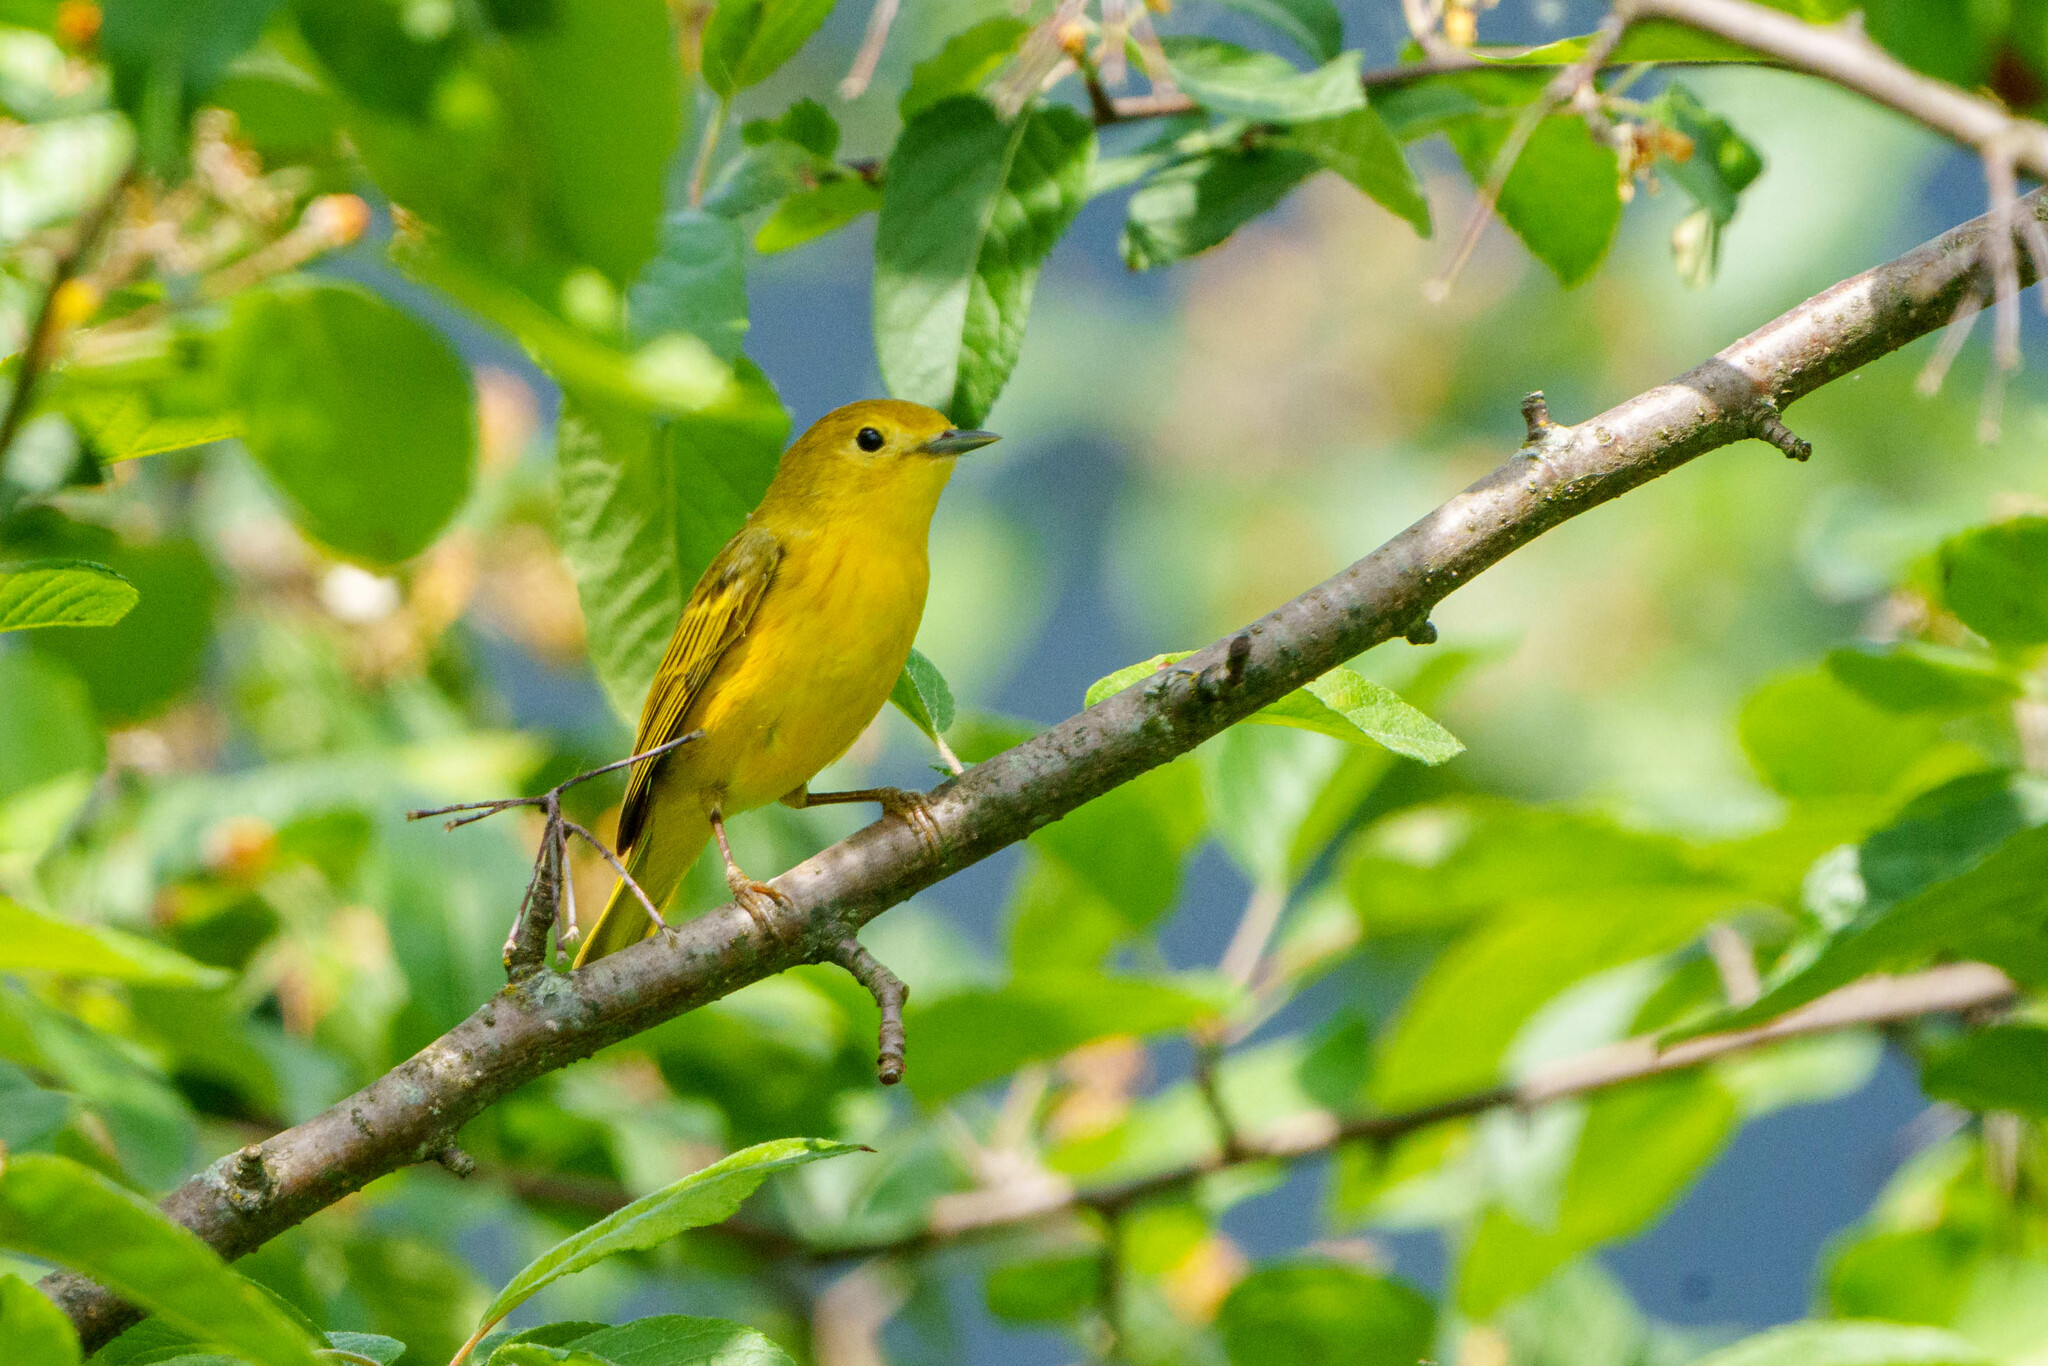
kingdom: Animalia
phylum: Chordata
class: Aves
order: Passeriformes
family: Parulidae
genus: Setophaga
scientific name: Setophaga petechia
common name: Yellow warbler
